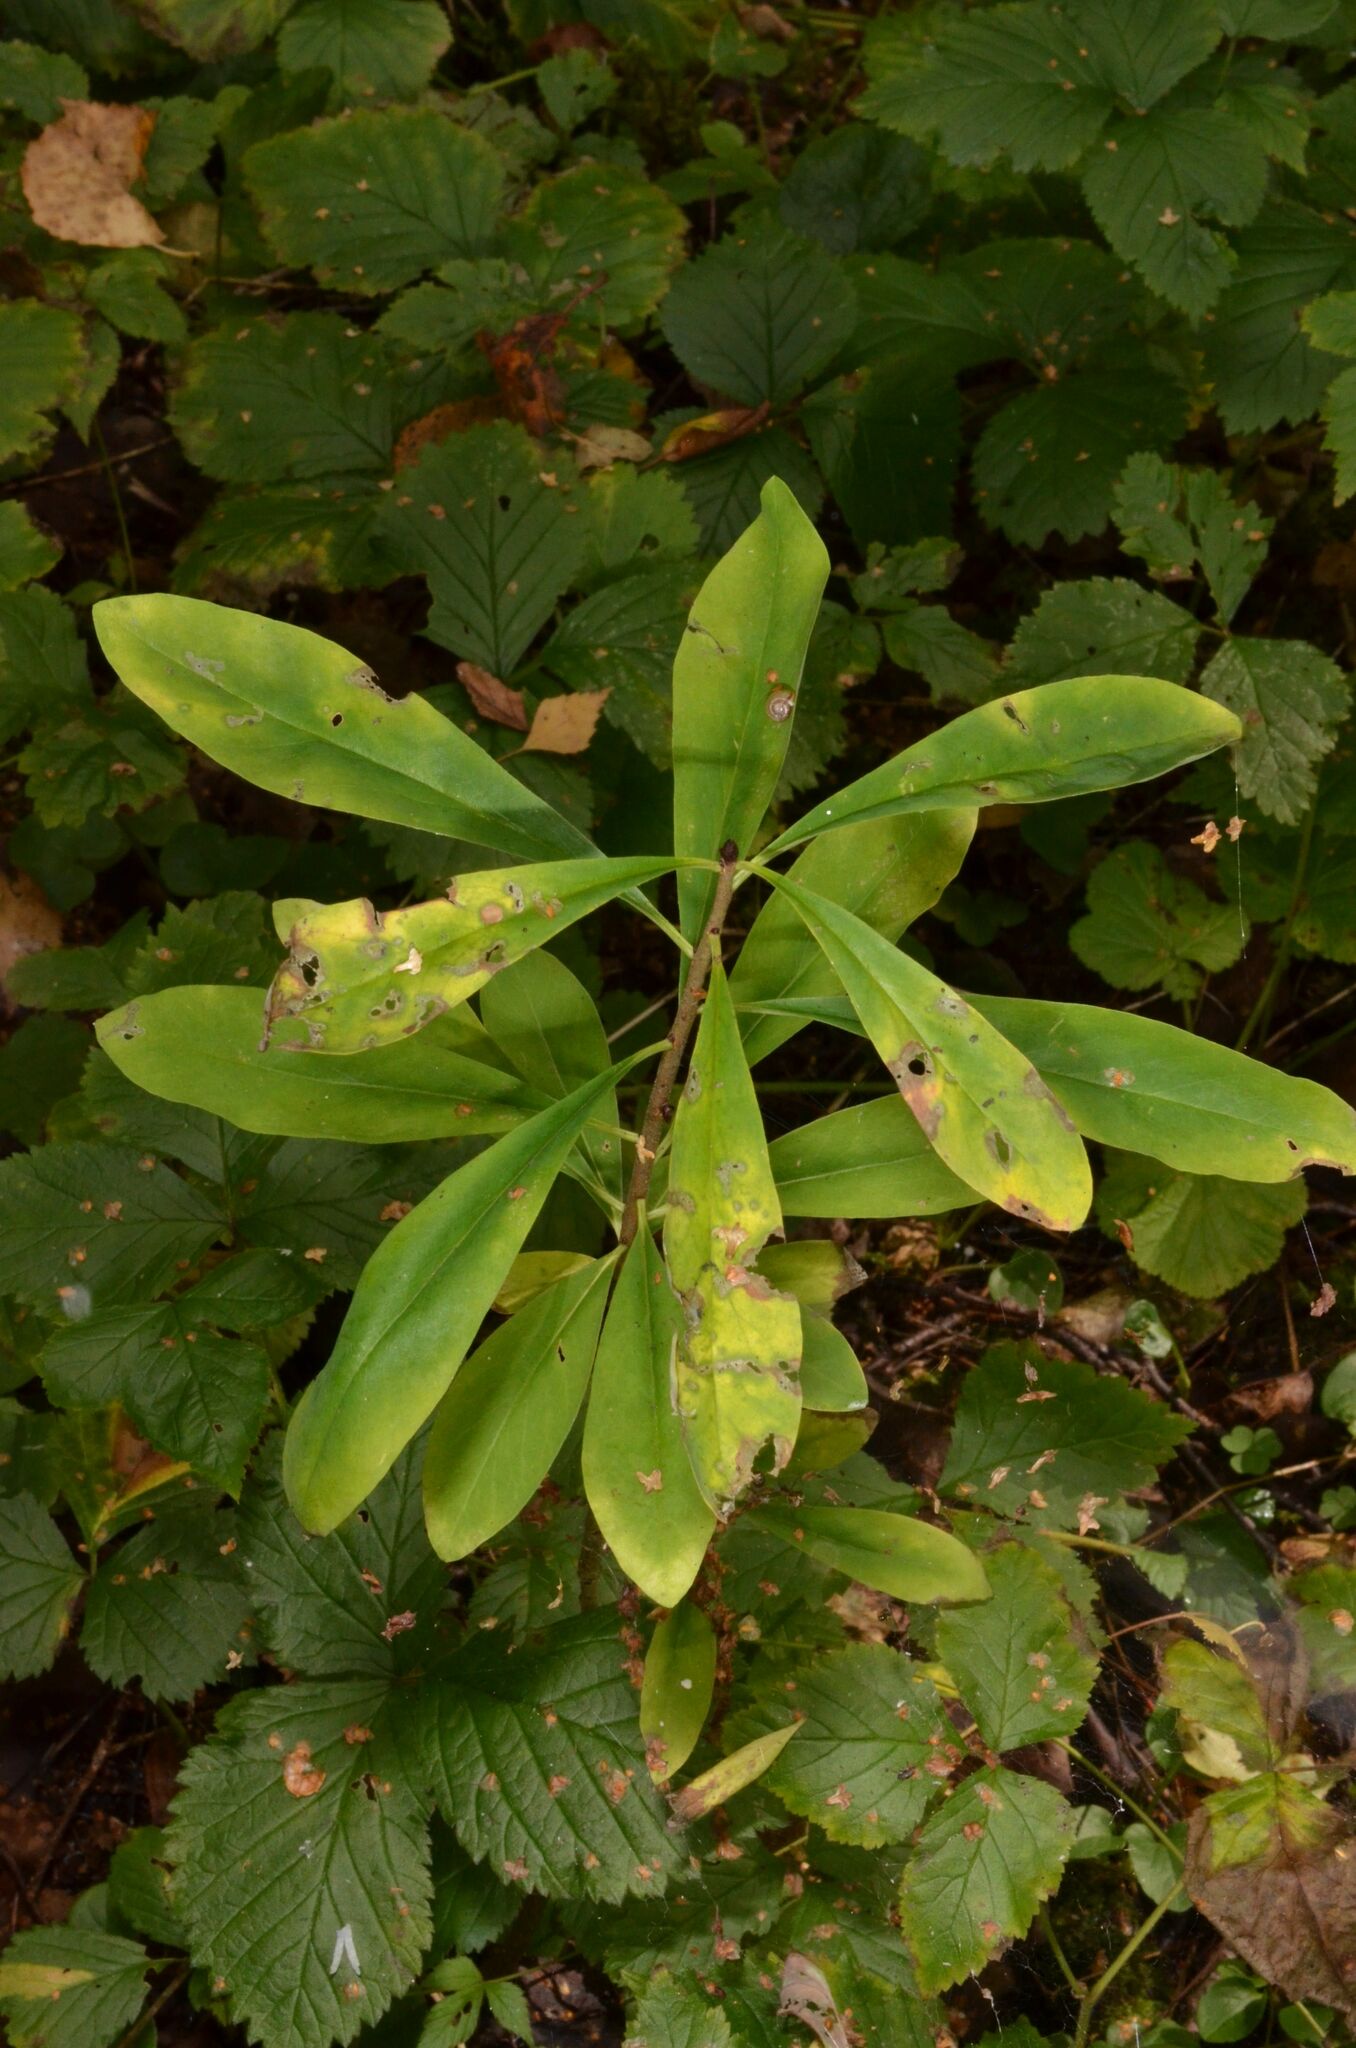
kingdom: Plantae
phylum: Tracheophyta
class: Magnoliopsida
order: Malvales
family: Thymelaeaceae
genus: Daphne
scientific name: Daphne mezereum
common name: Mezereon
